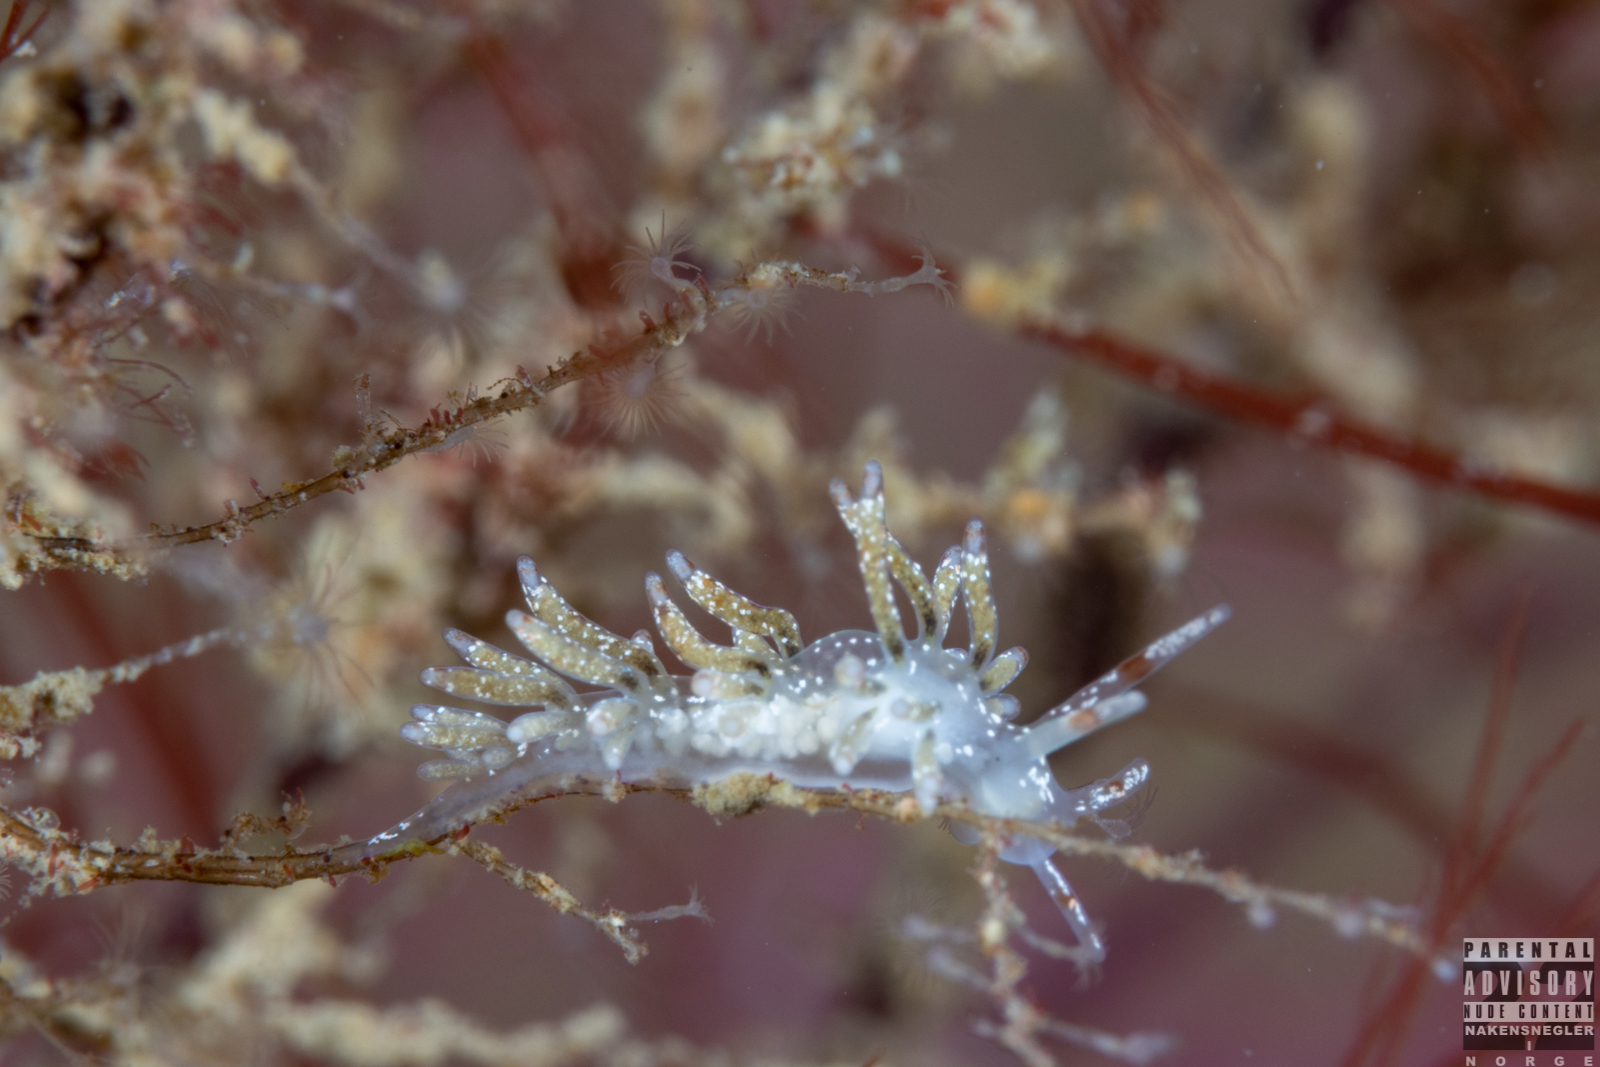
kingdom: Animalia
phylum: Mollusca
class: Gastropoda
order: Nudibranchia
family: Trinchesiidae
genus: Rubramoena
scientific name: Rubramoena amoena
